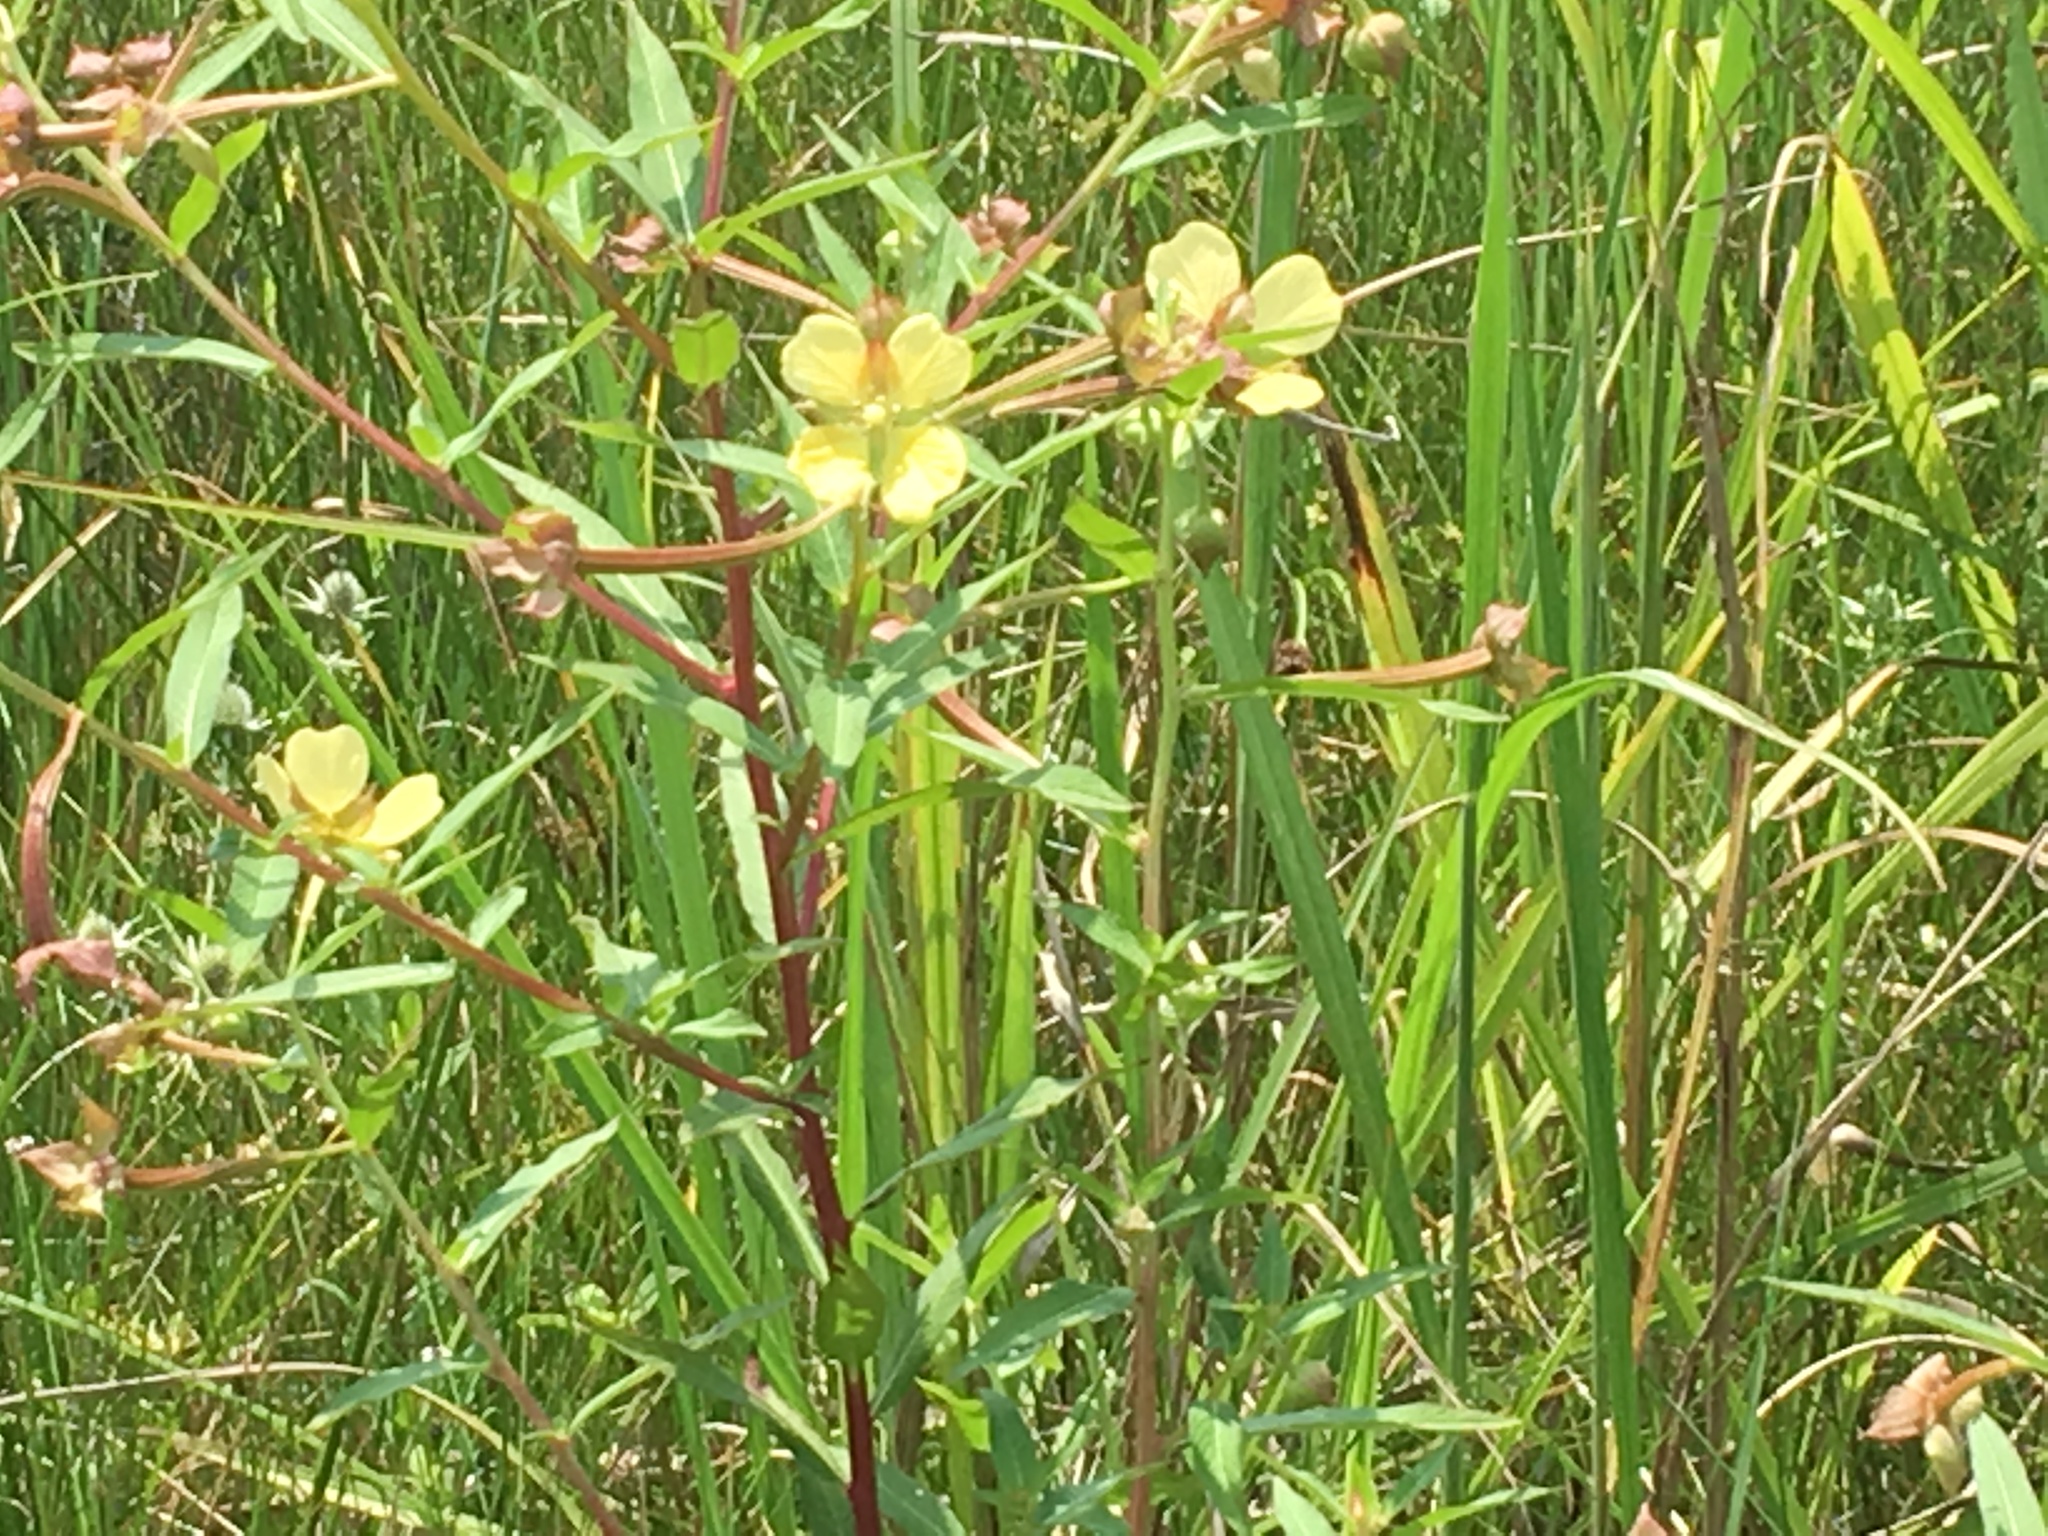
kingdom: Plantae
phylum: Tracheophyta
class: Magnoliopsida
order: Myrtales
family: Onagraceae
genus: Ludwigia
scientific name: Ludwigia octovalvis
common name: Water-primrose
